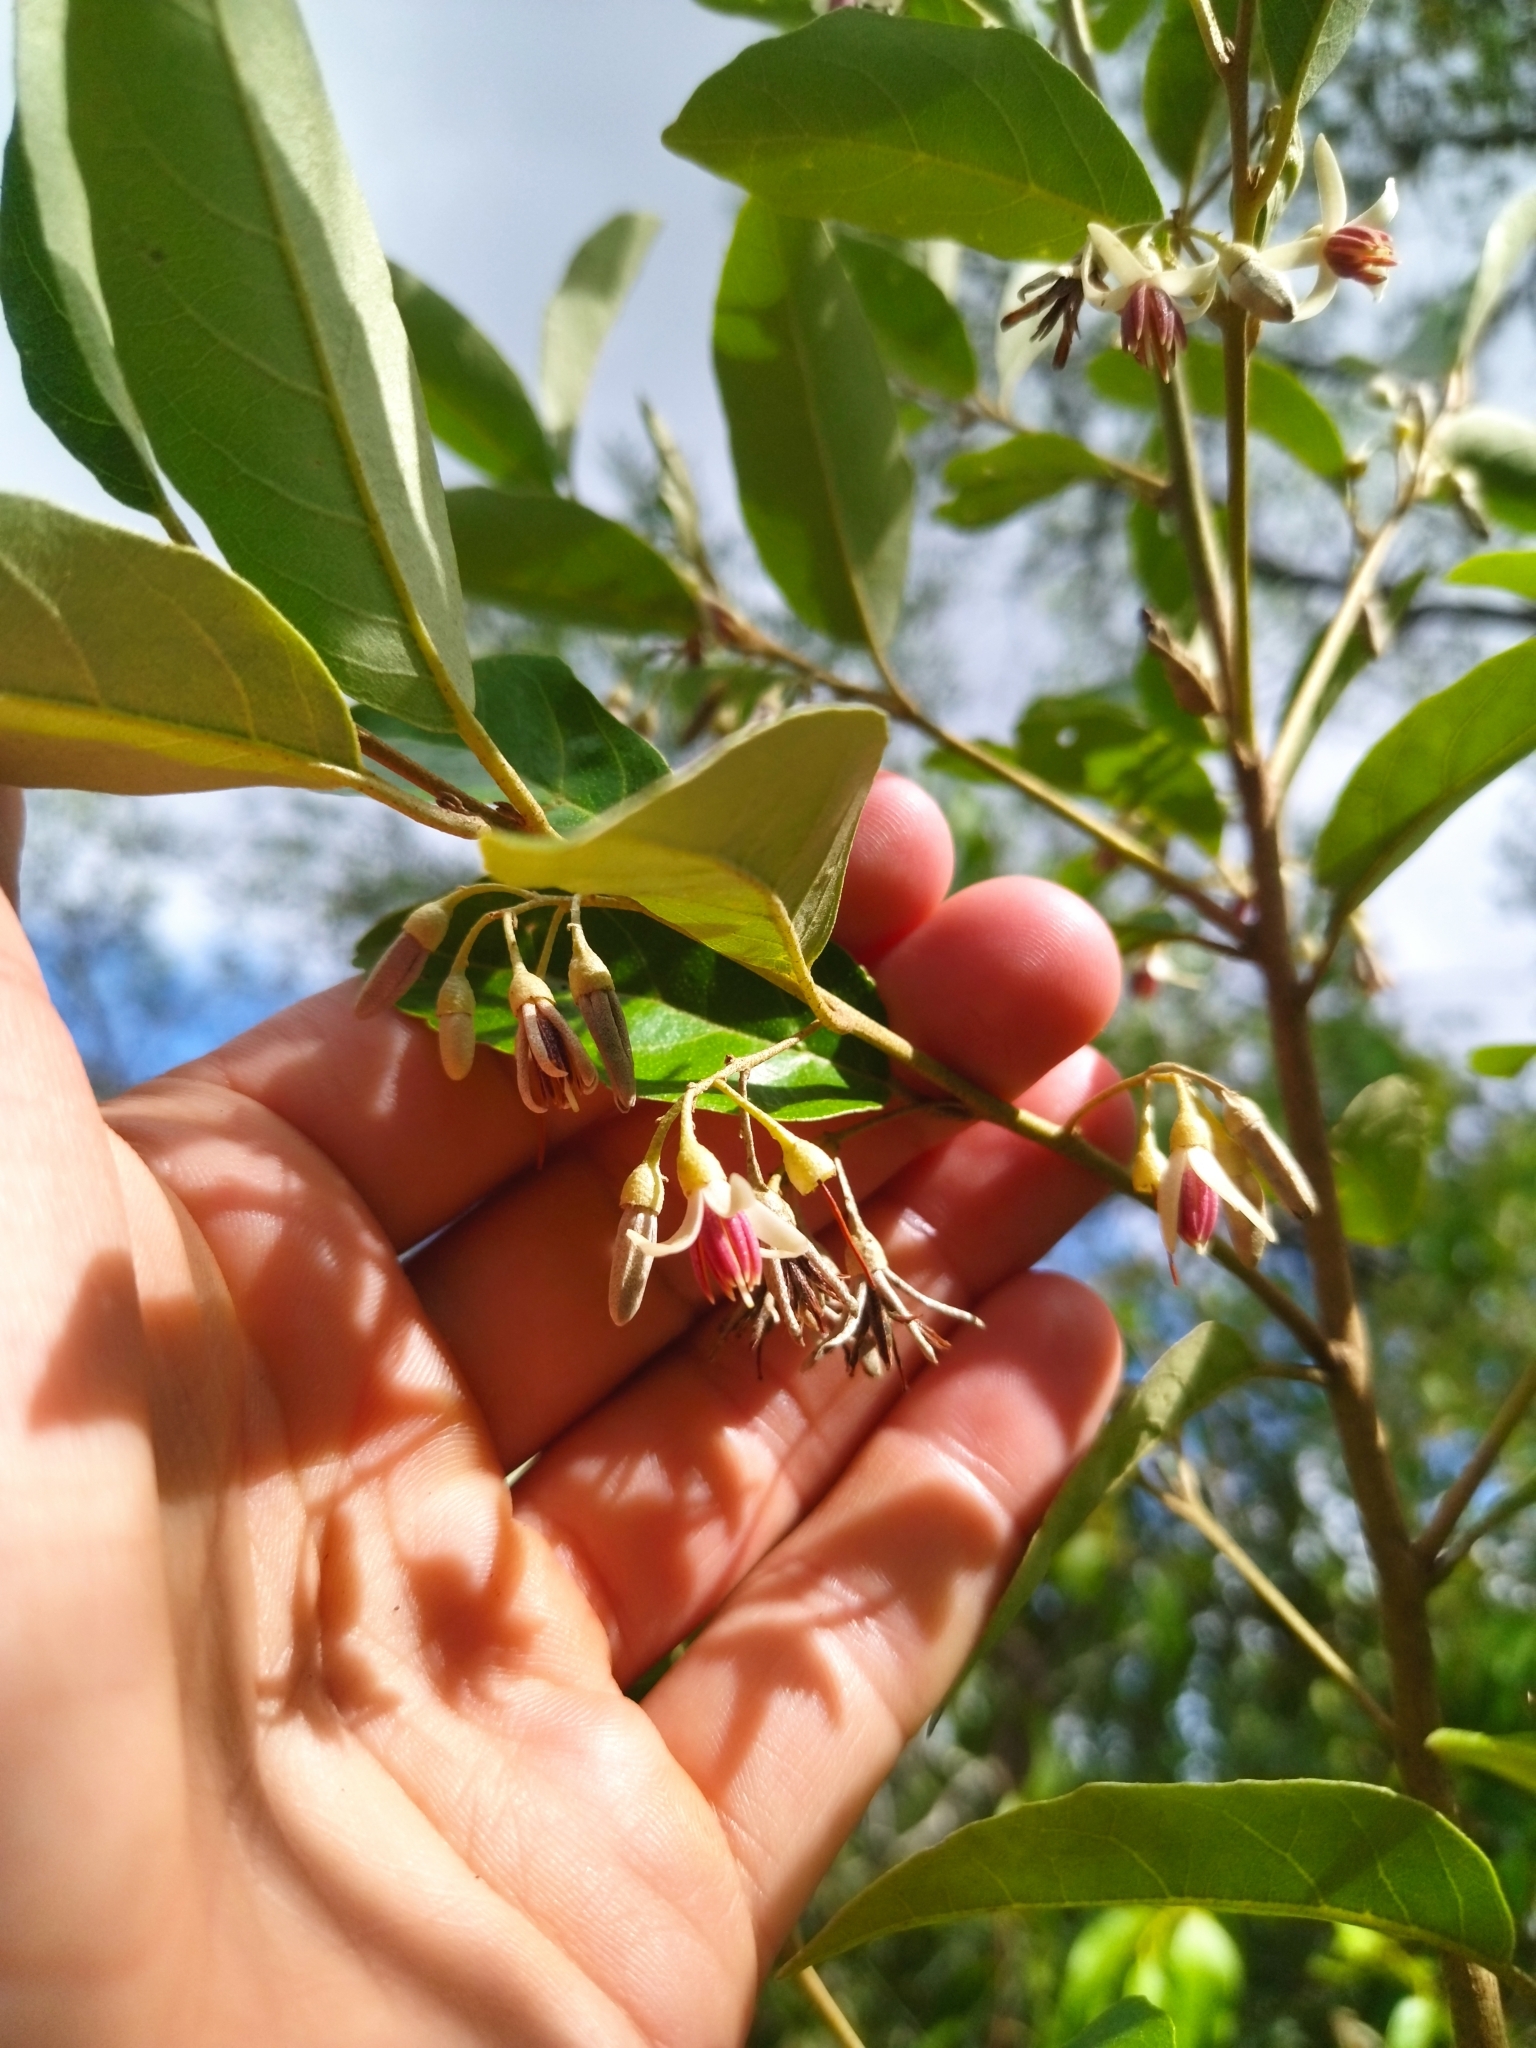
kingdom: Plantae
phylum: Tracheophyta
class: Magnoliopsida
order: Ericales
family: Styracaceae
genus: Styrax
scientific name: Styrax leprosus
